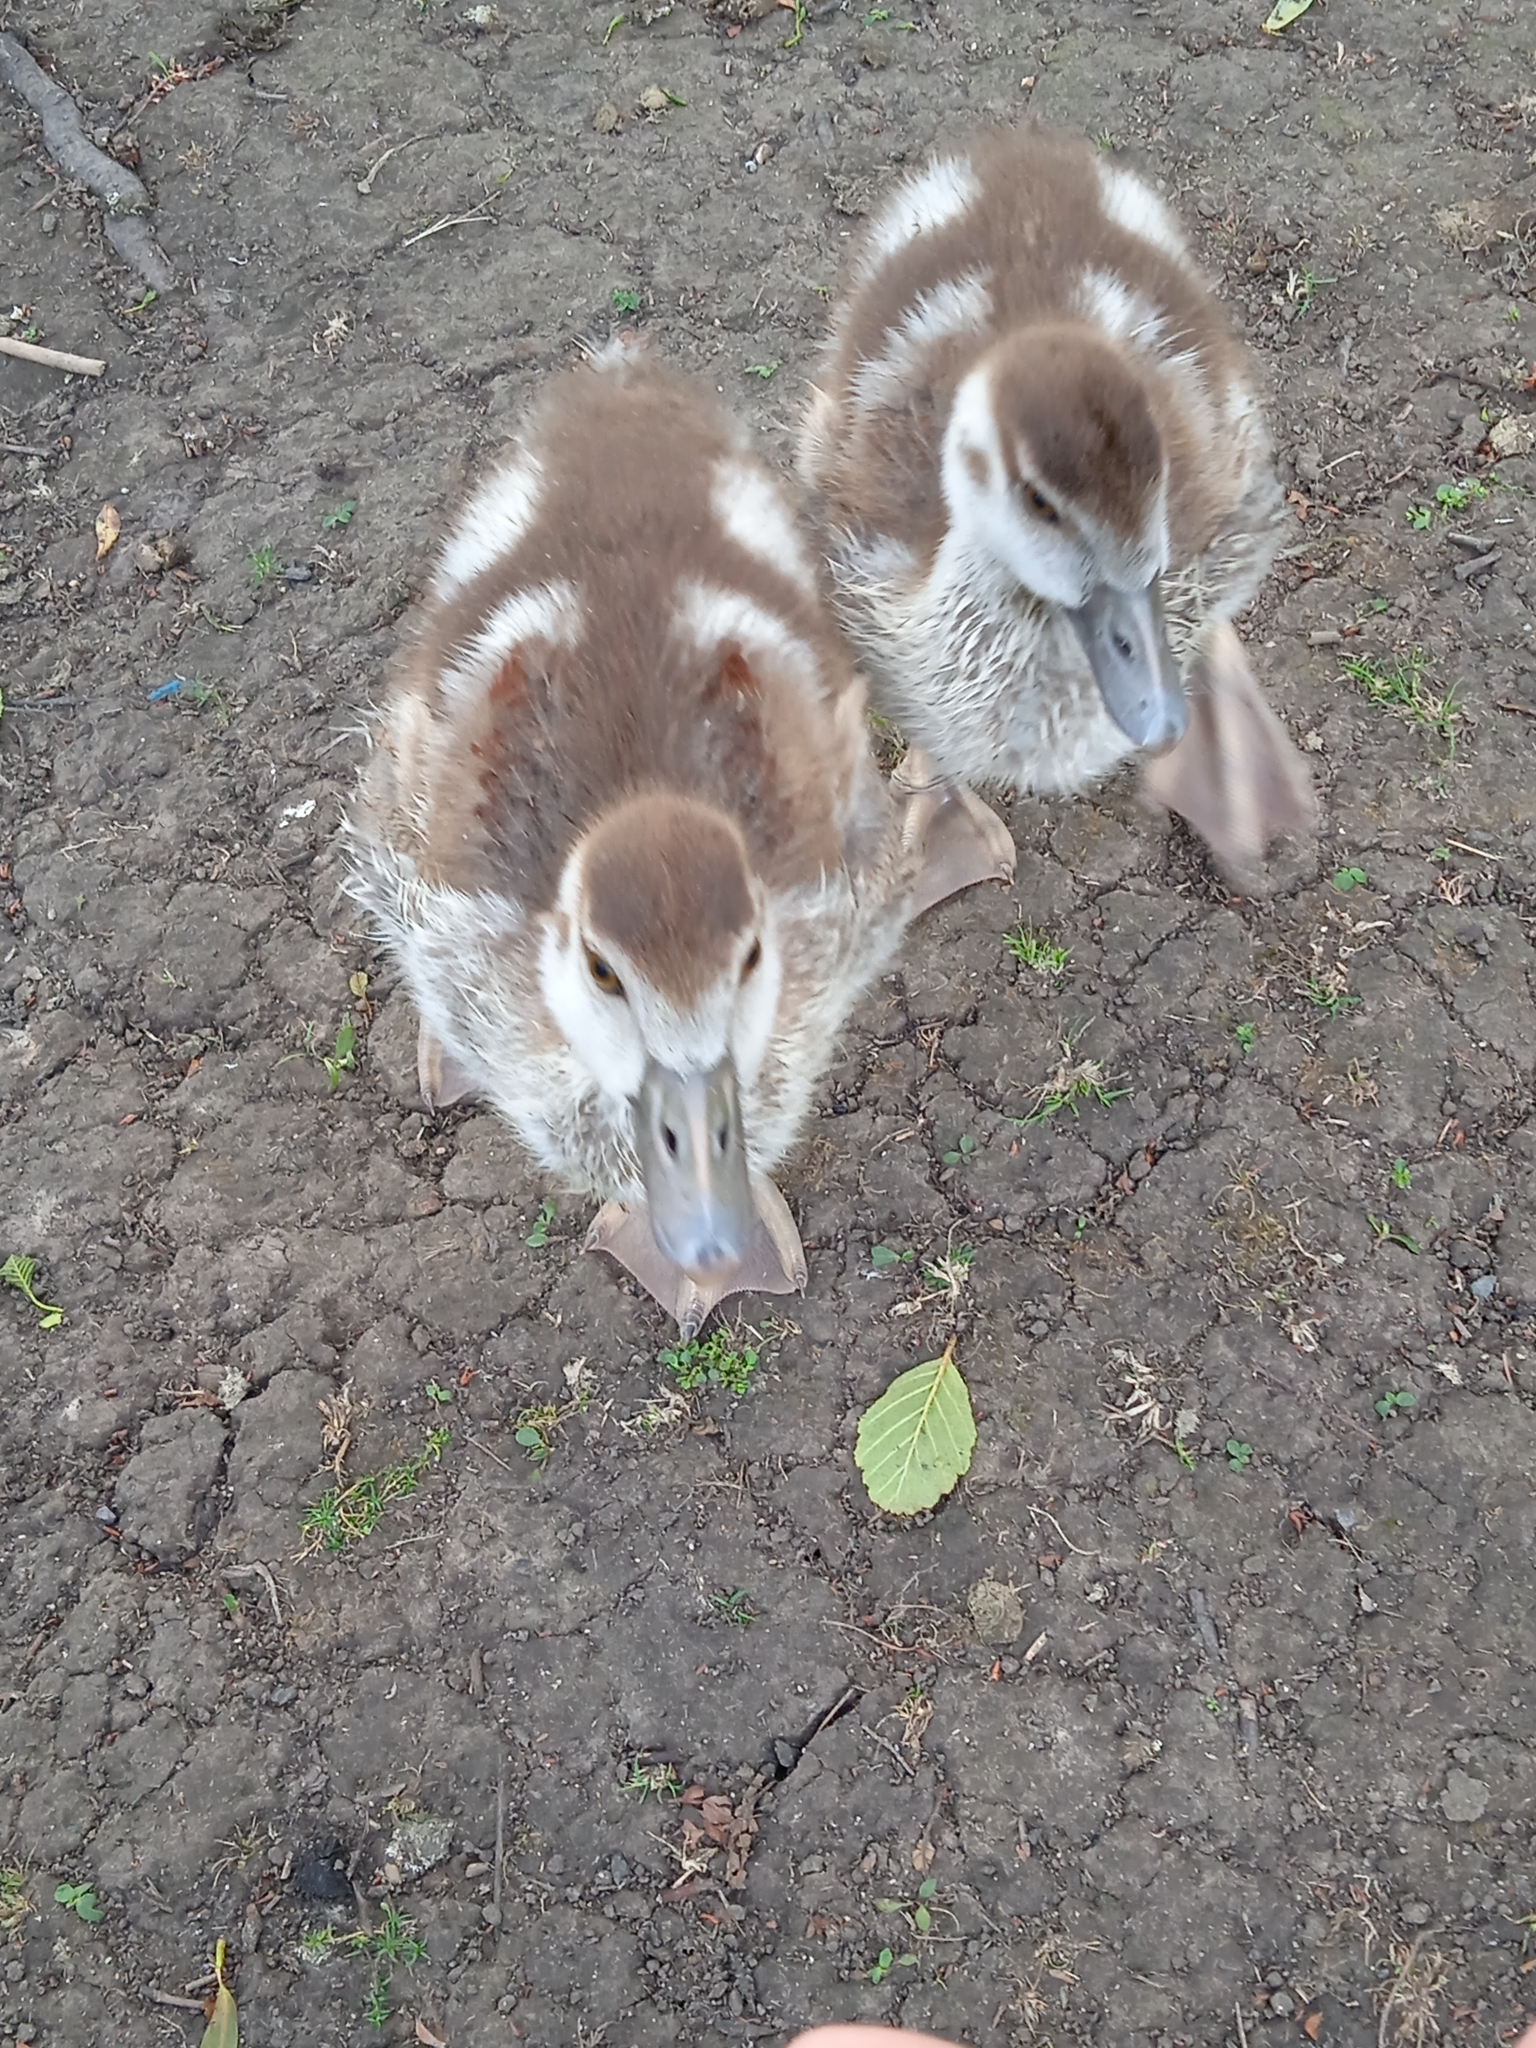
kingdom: Animalia
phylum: Chordata
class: Aves
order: Anseriformes
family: Anatidae
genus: Alopochen
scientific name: Alopochen aegyptiaca
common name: Egyptian goose
